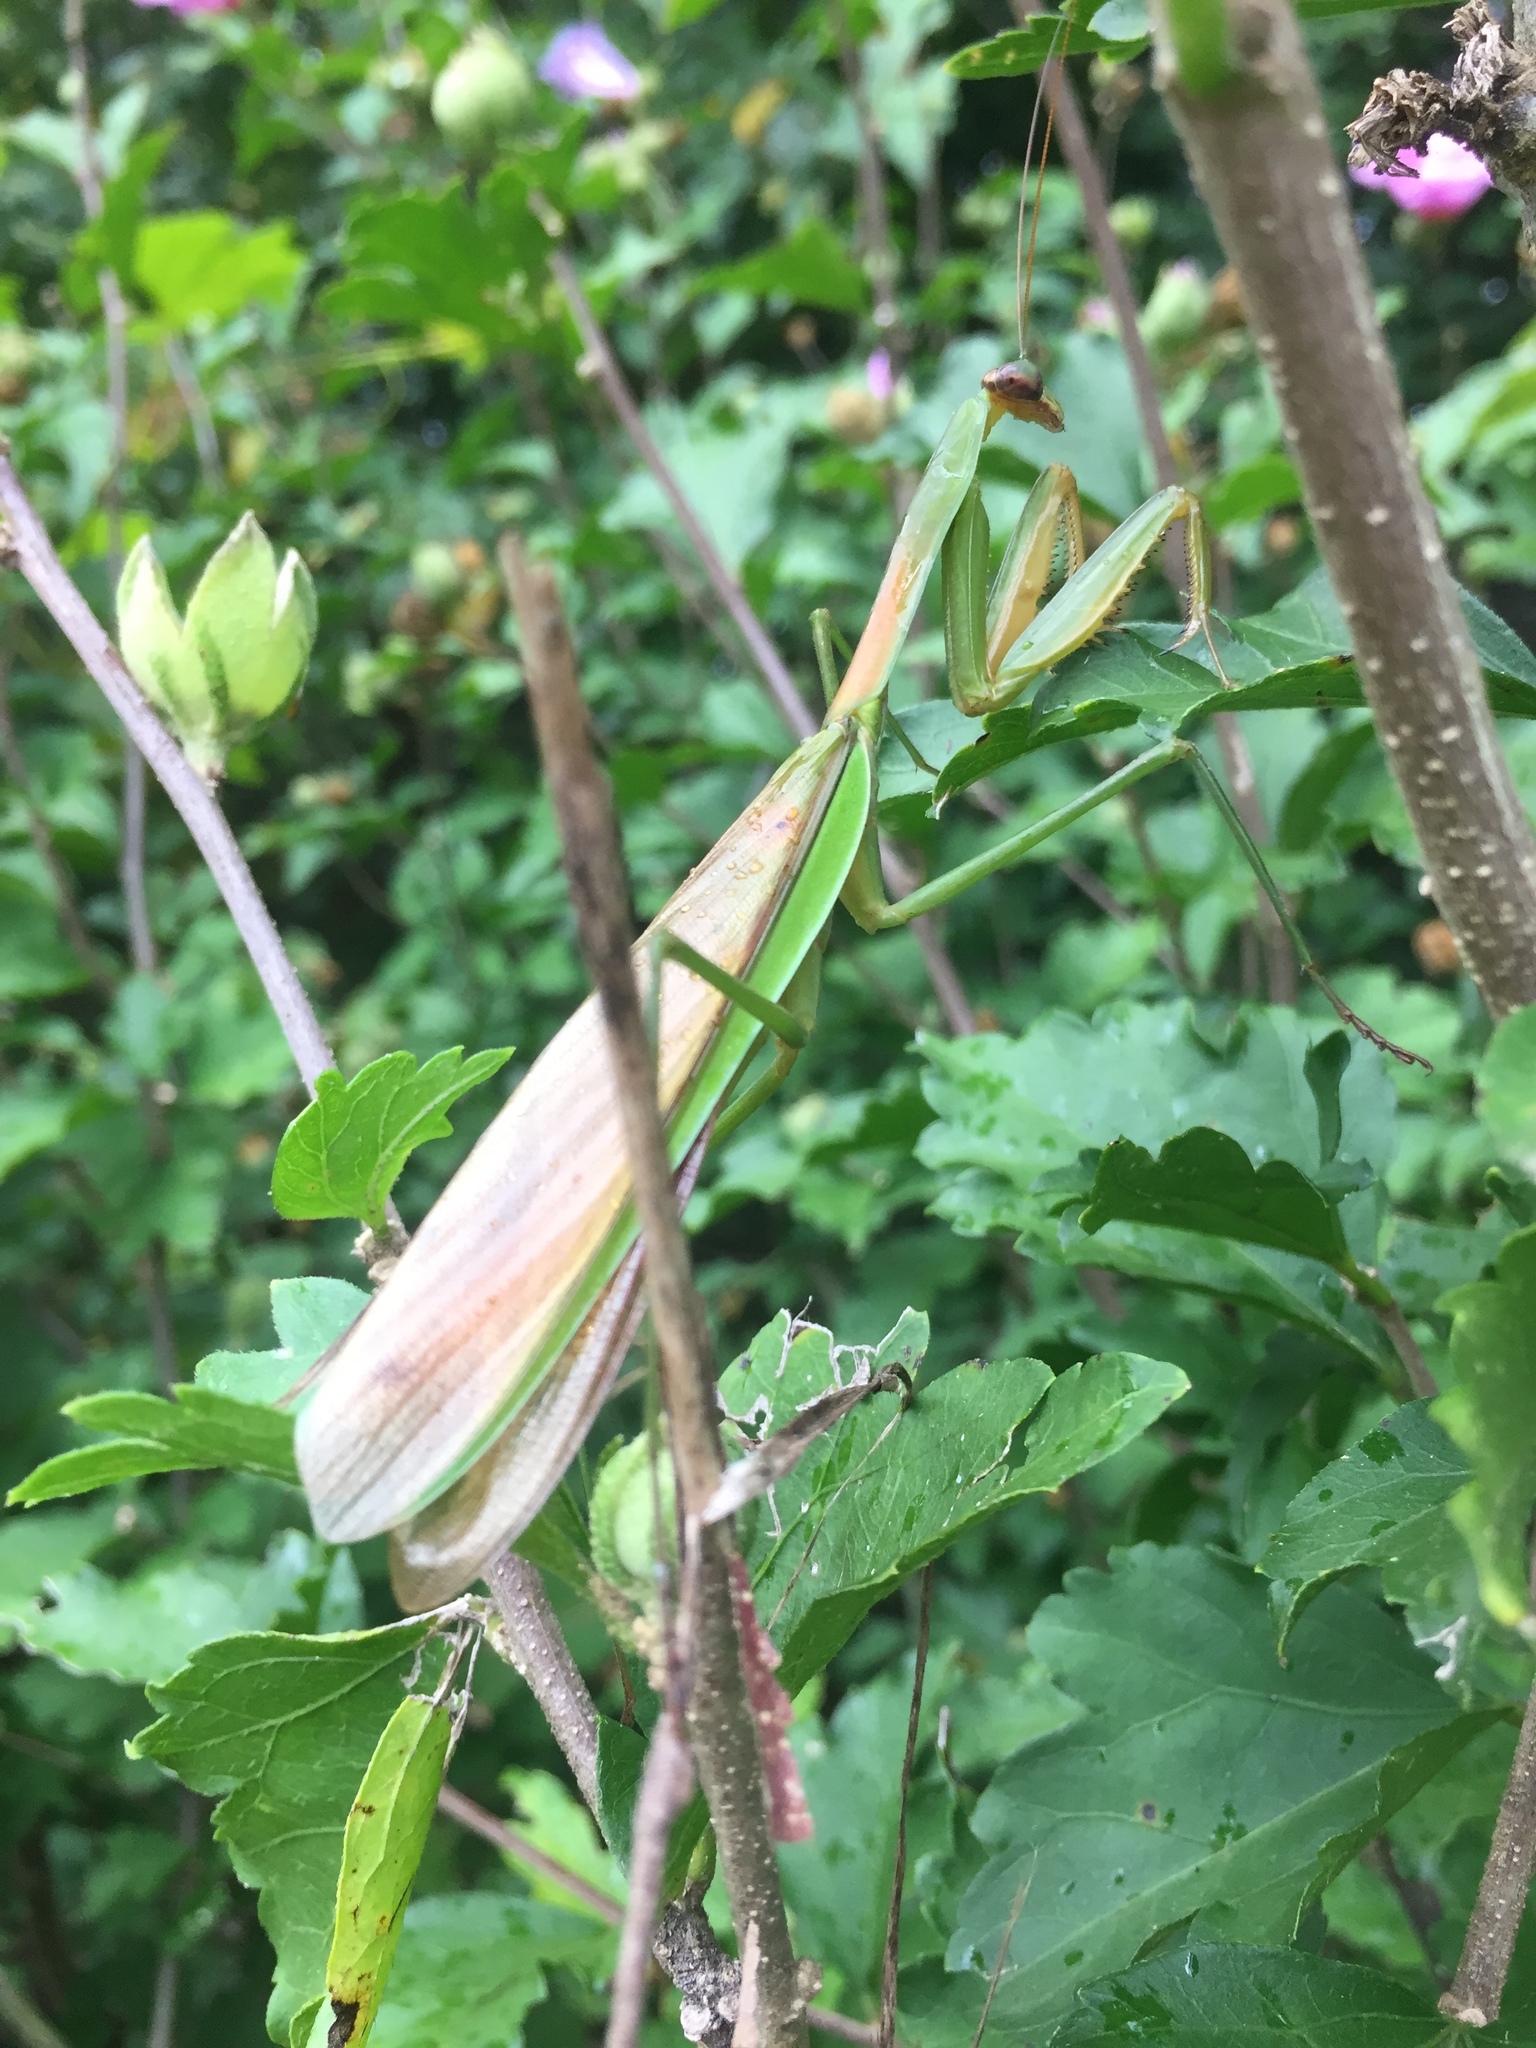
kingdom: Animalia
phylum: Arthropoda
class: Insecta
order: Mantodea
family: Mantidae
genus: Tenodera
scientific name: Tenodera sinensis
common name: Chinese mantis
